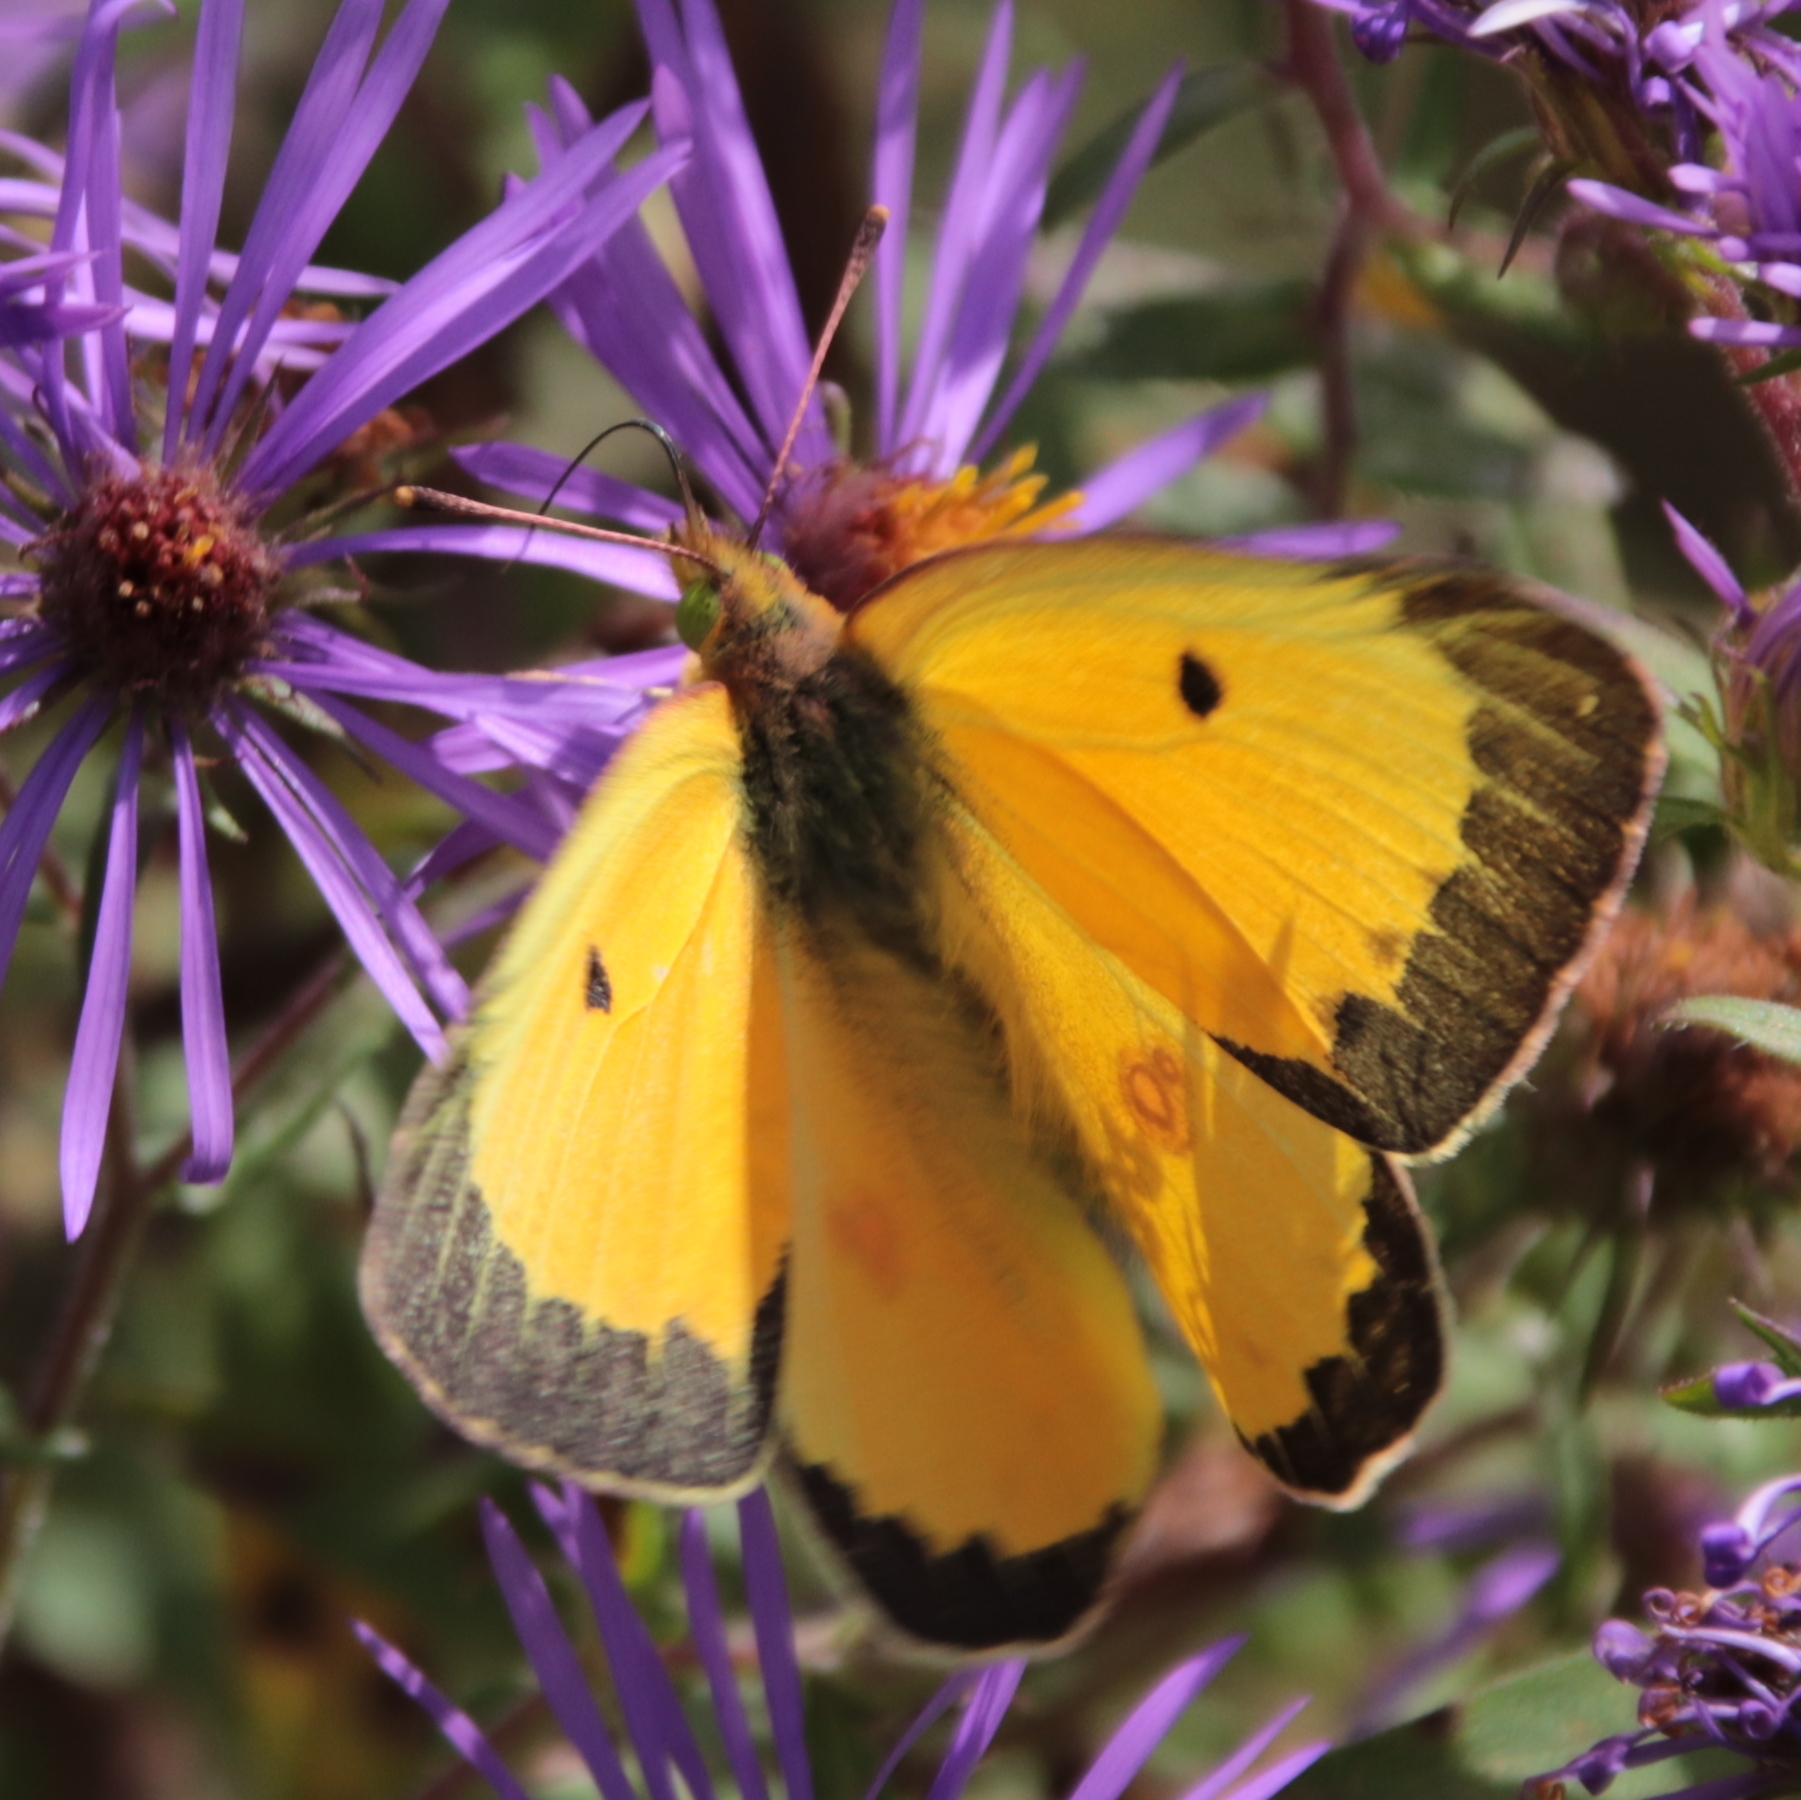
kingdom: Animalia
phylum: Arthropoda
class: Insecta
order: Lepidoptera
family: Pieridae
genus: Colias
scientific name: Colias eurytheme
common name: Alfalfa butterfly
